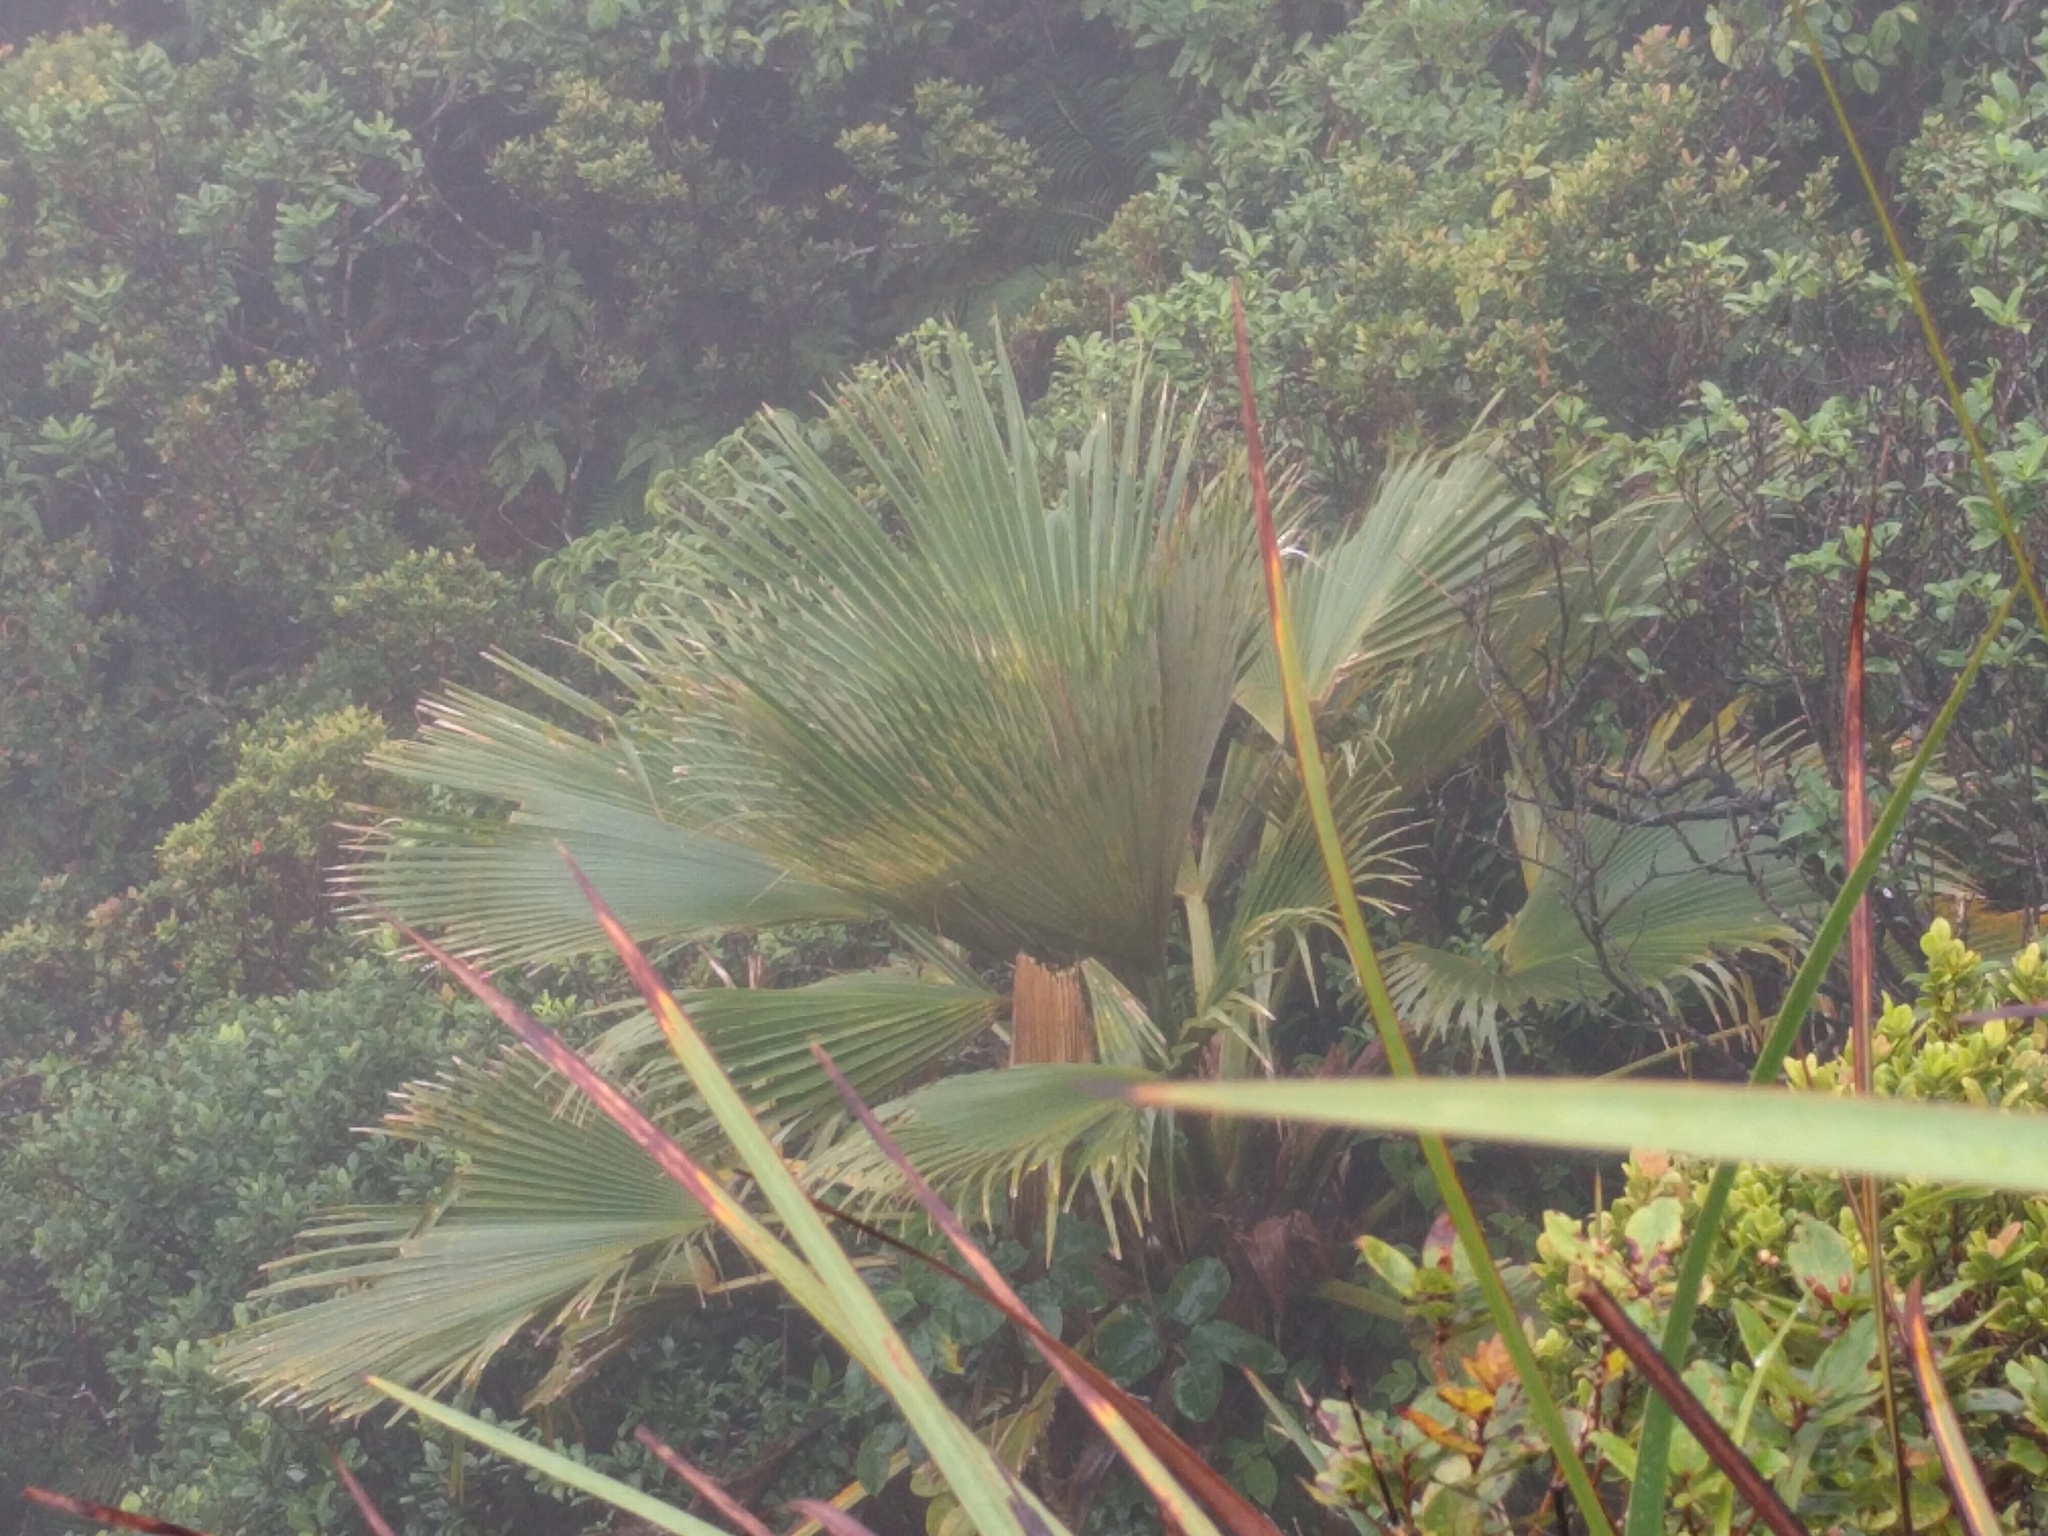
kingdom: Plantae
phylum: Tracheophyta
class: Liliopsida
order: Arecales
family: Arecaceae
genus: Pritchardia
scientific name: Pritchardia martii
